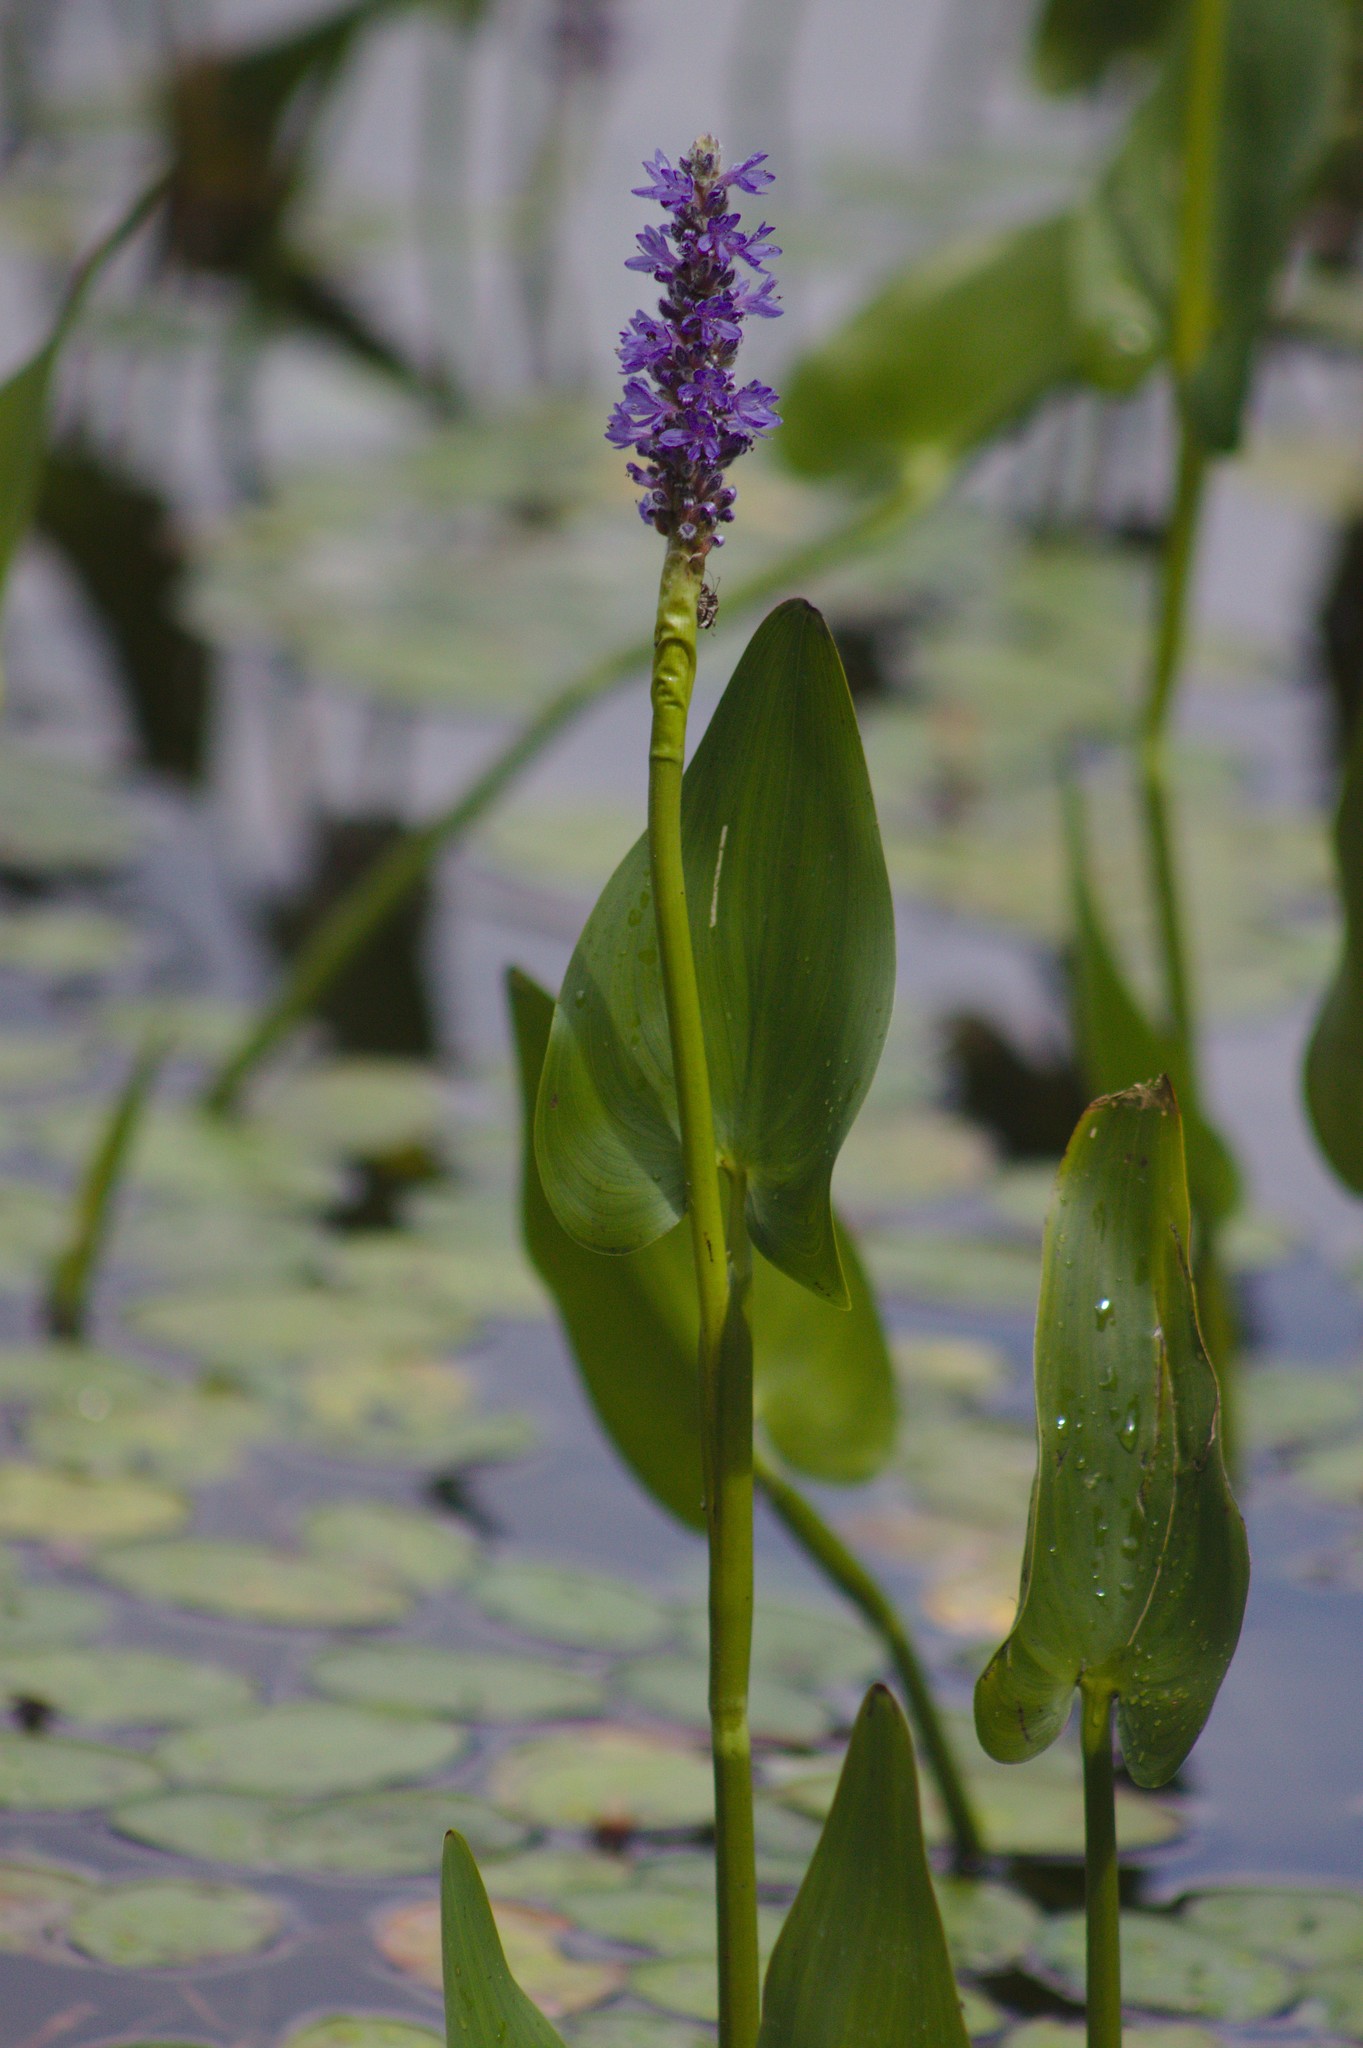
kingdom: Plantae
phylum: Tracheophyta
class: Liliopsida
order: Commelinales
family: Pontederiaceae
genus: Pontederia
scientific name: Pontederia cordata
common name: Pickerelweed
